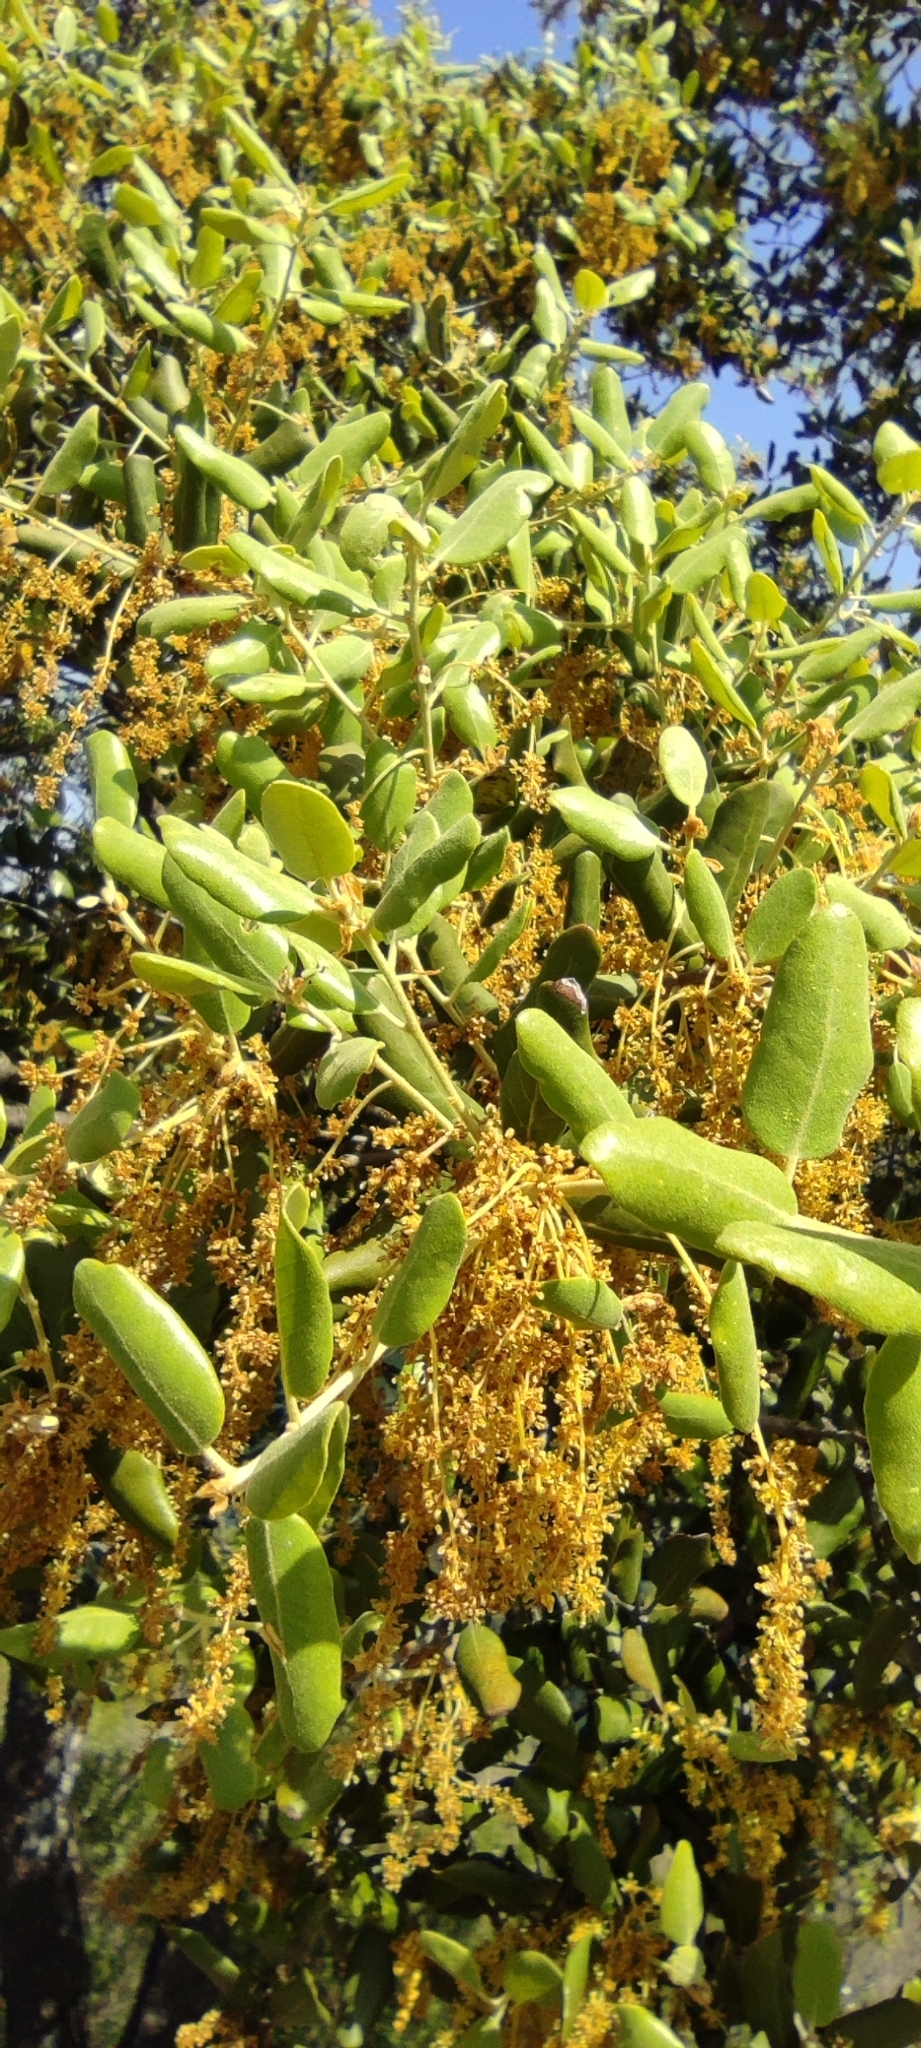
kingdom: Plantae
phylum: Tracheophyta
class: Magnoliopsida
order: Fagales
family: Fagaceae
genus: Quercus
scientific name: Quercus rotundifolia
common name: Holm oak
